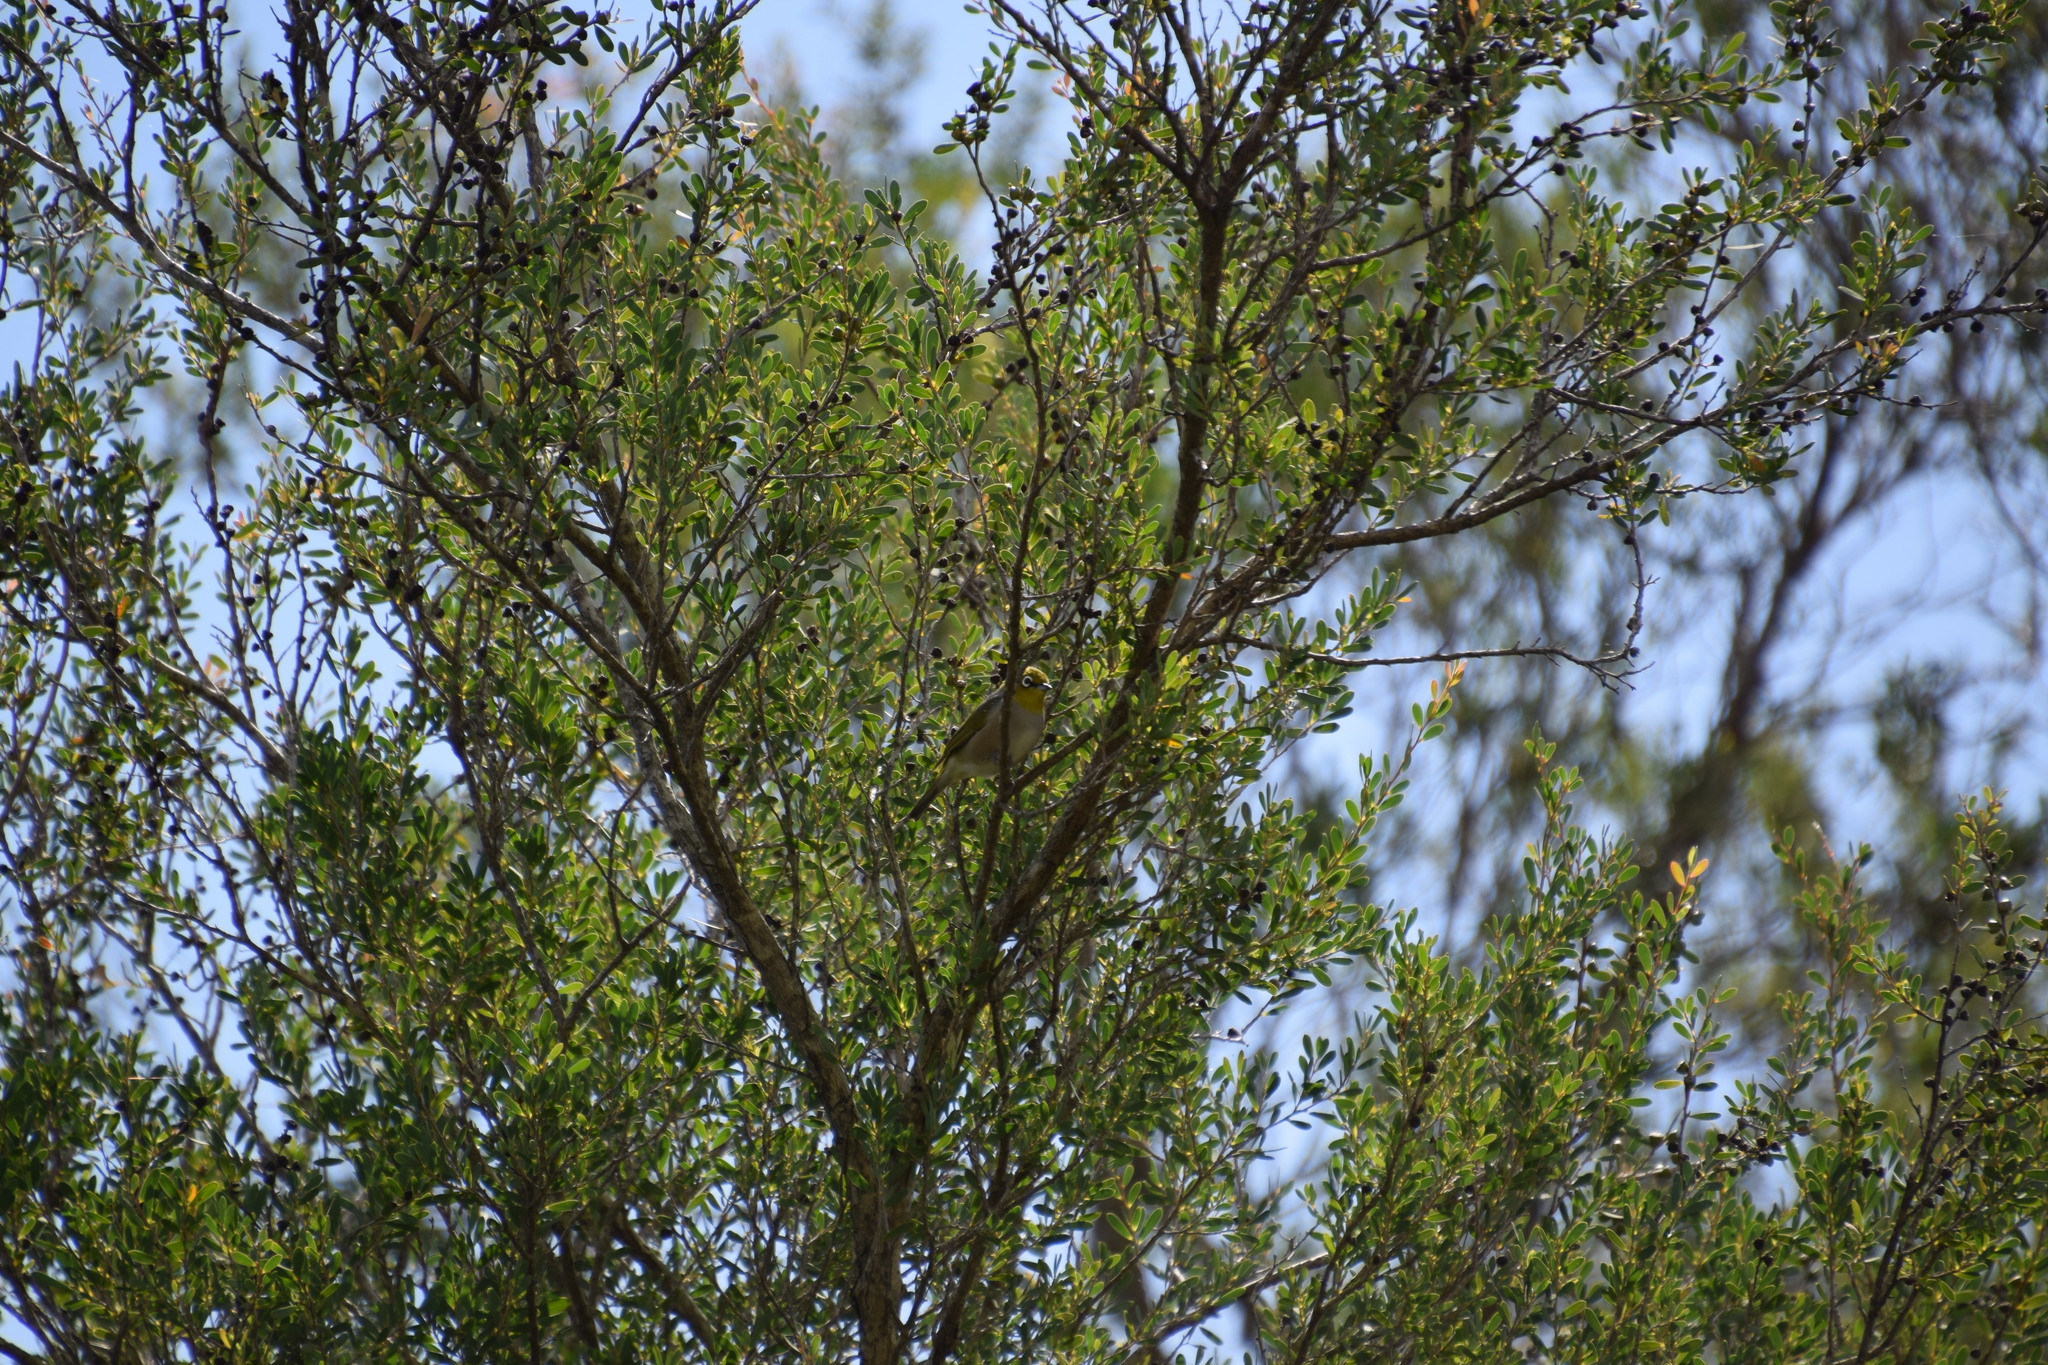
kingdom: Animalia
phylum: Chordata
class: Aves
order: Passeriformes
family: Zosteropidae
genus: Zosterops
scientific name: Zosterops lateralis
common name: Silvereye
